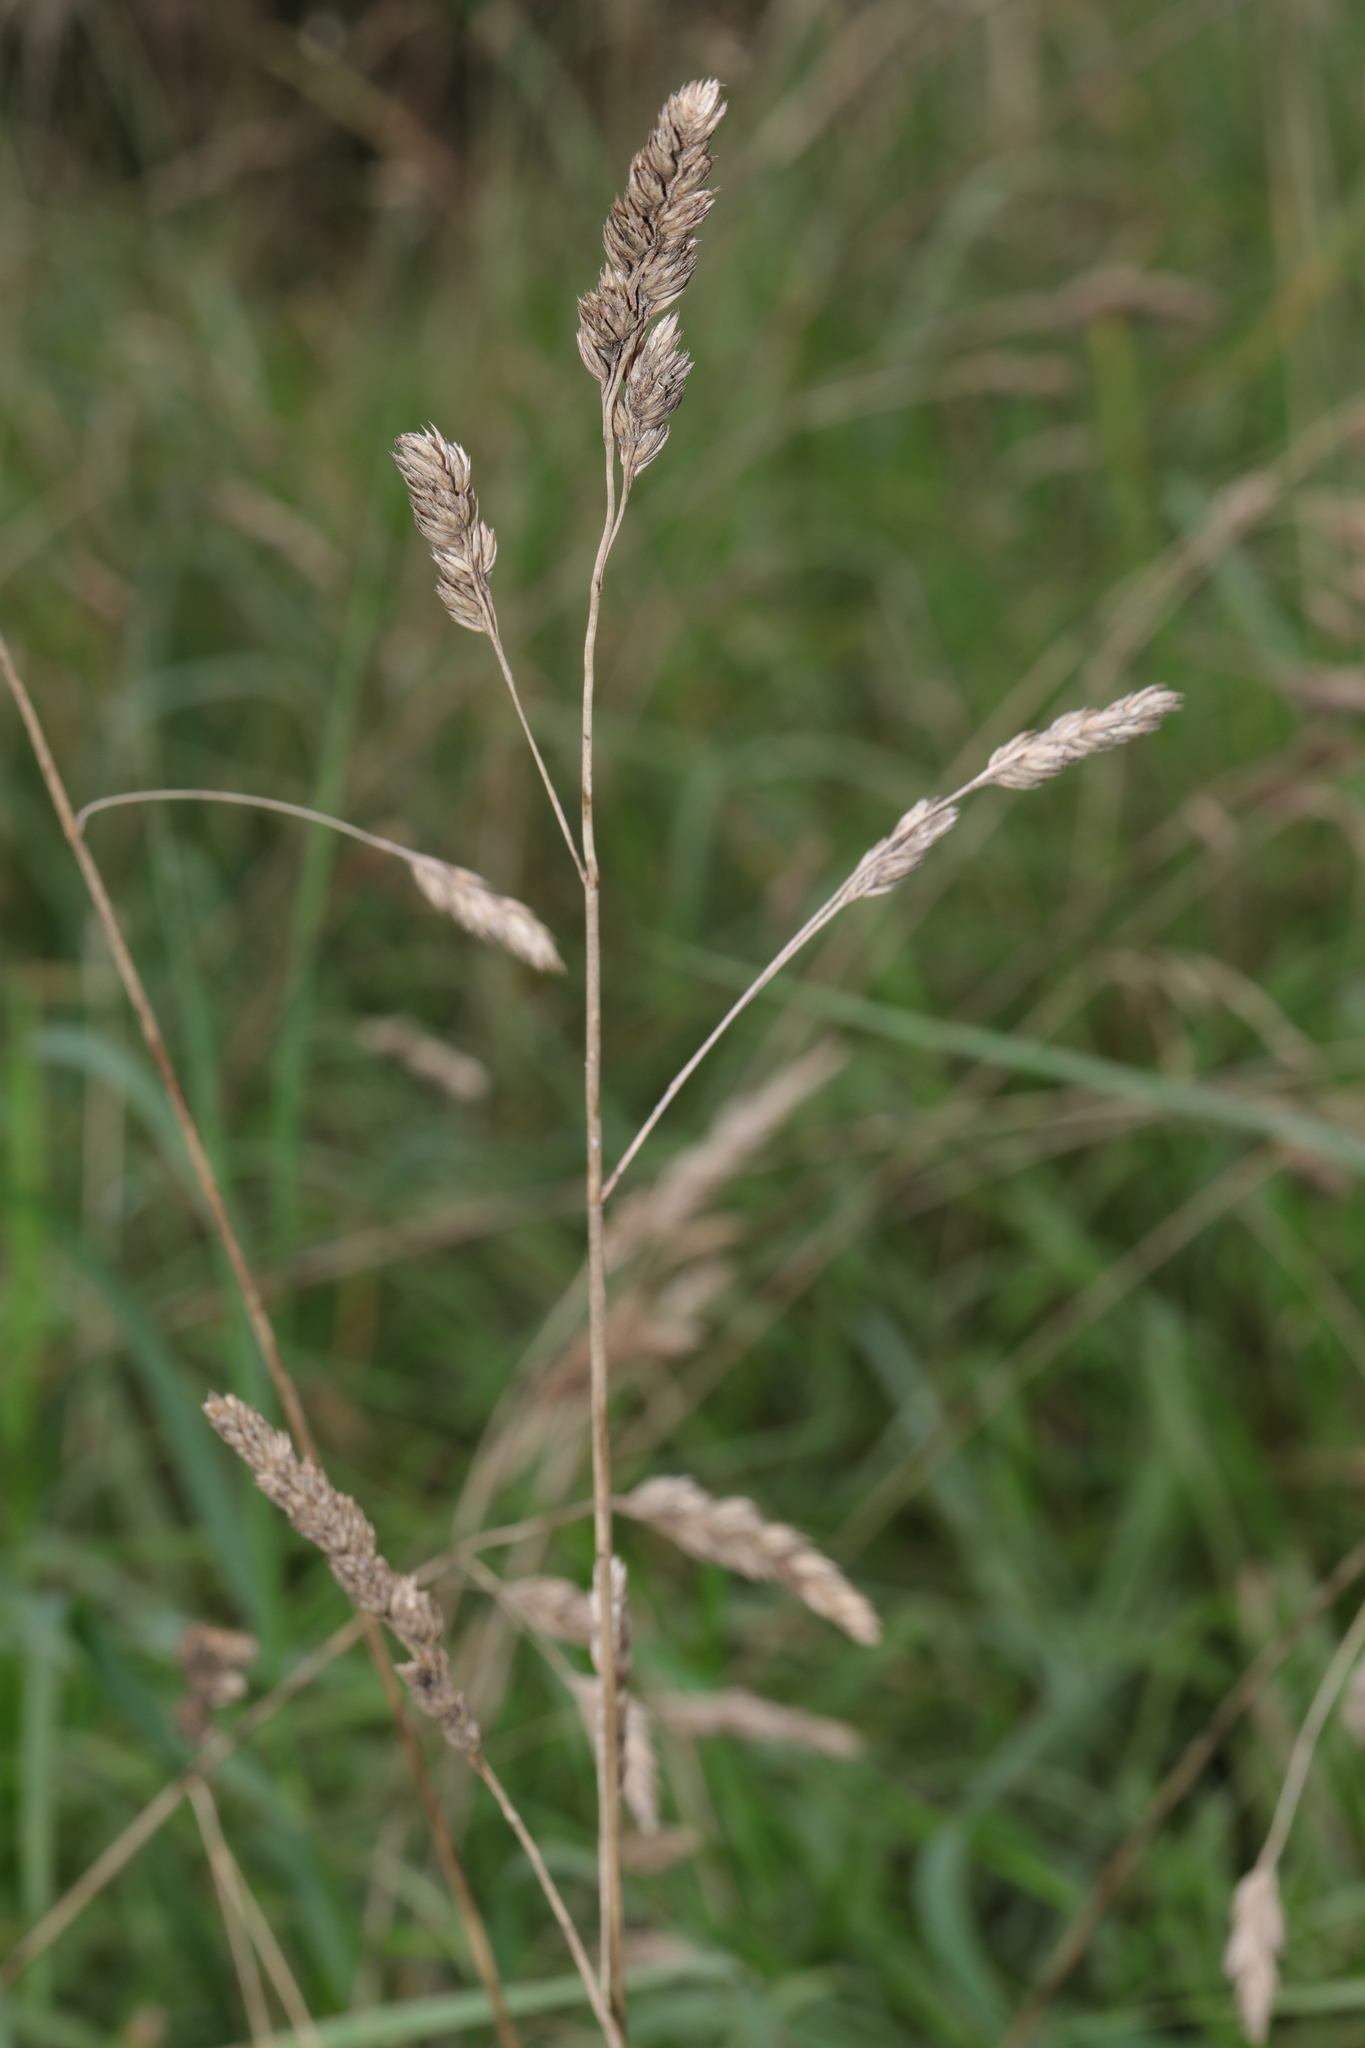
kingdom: Plantae
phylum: Tracheophyta
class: Liliopsida
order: Poales
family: Poaceae
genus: Dactylis
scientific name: Dactylis glomerata
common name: Orchardgrass
